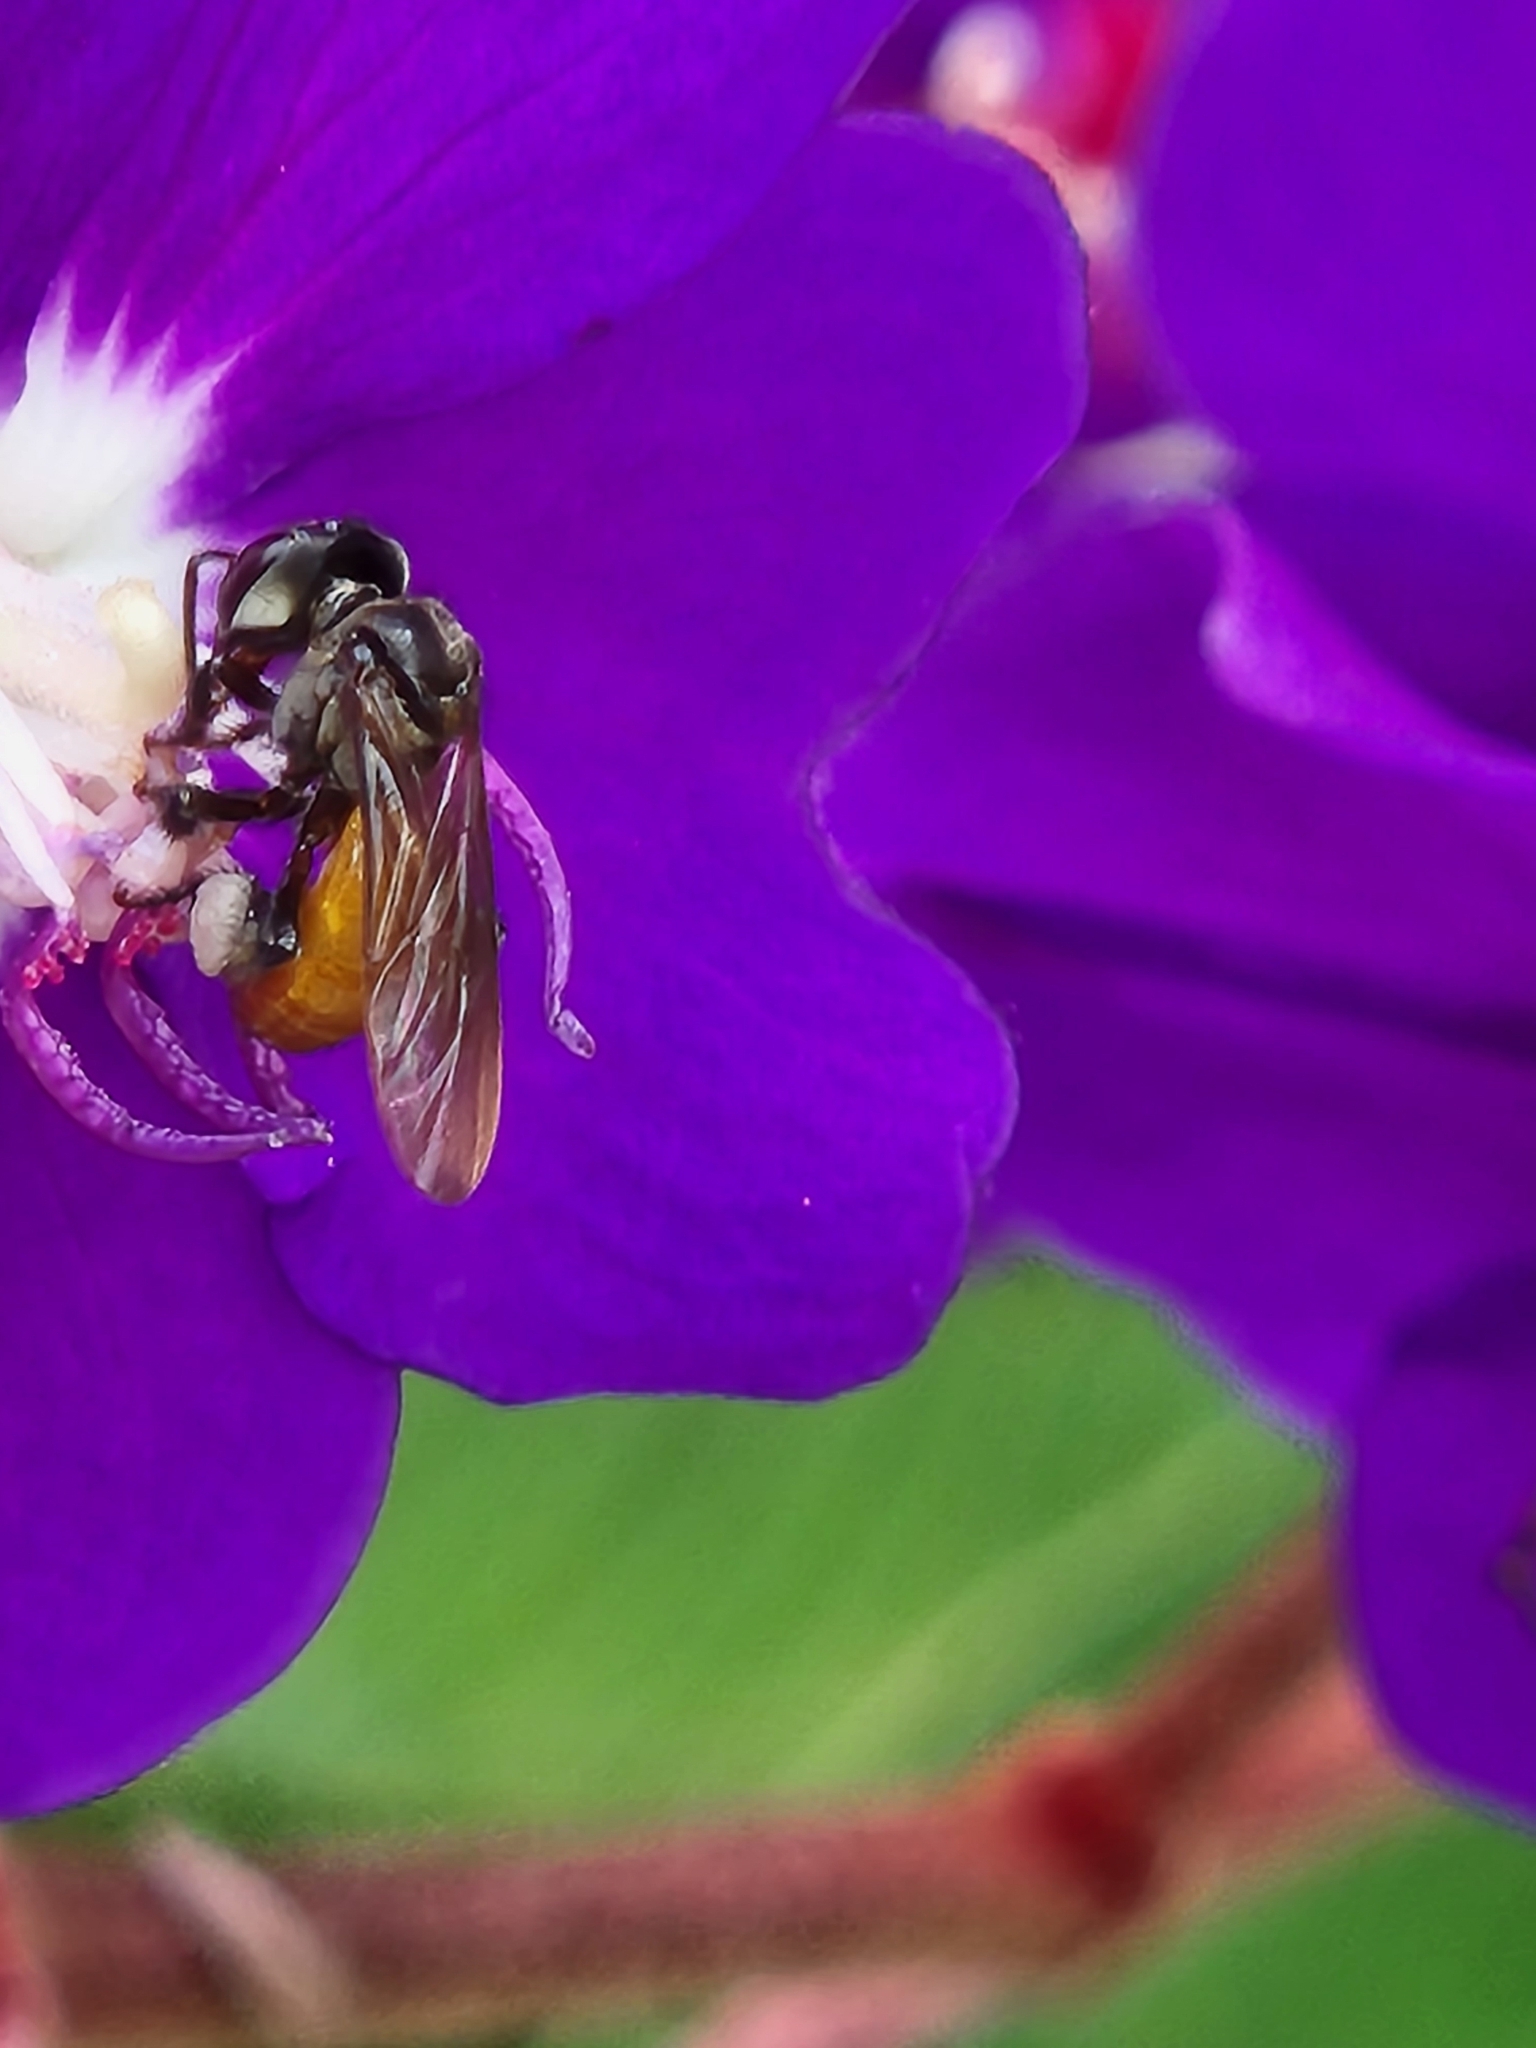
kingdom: Animalia
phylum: Arthropoda
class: Insecta
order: Hymenoptera
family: Apidae
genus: Trigona
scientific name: Trigona fulviventris
